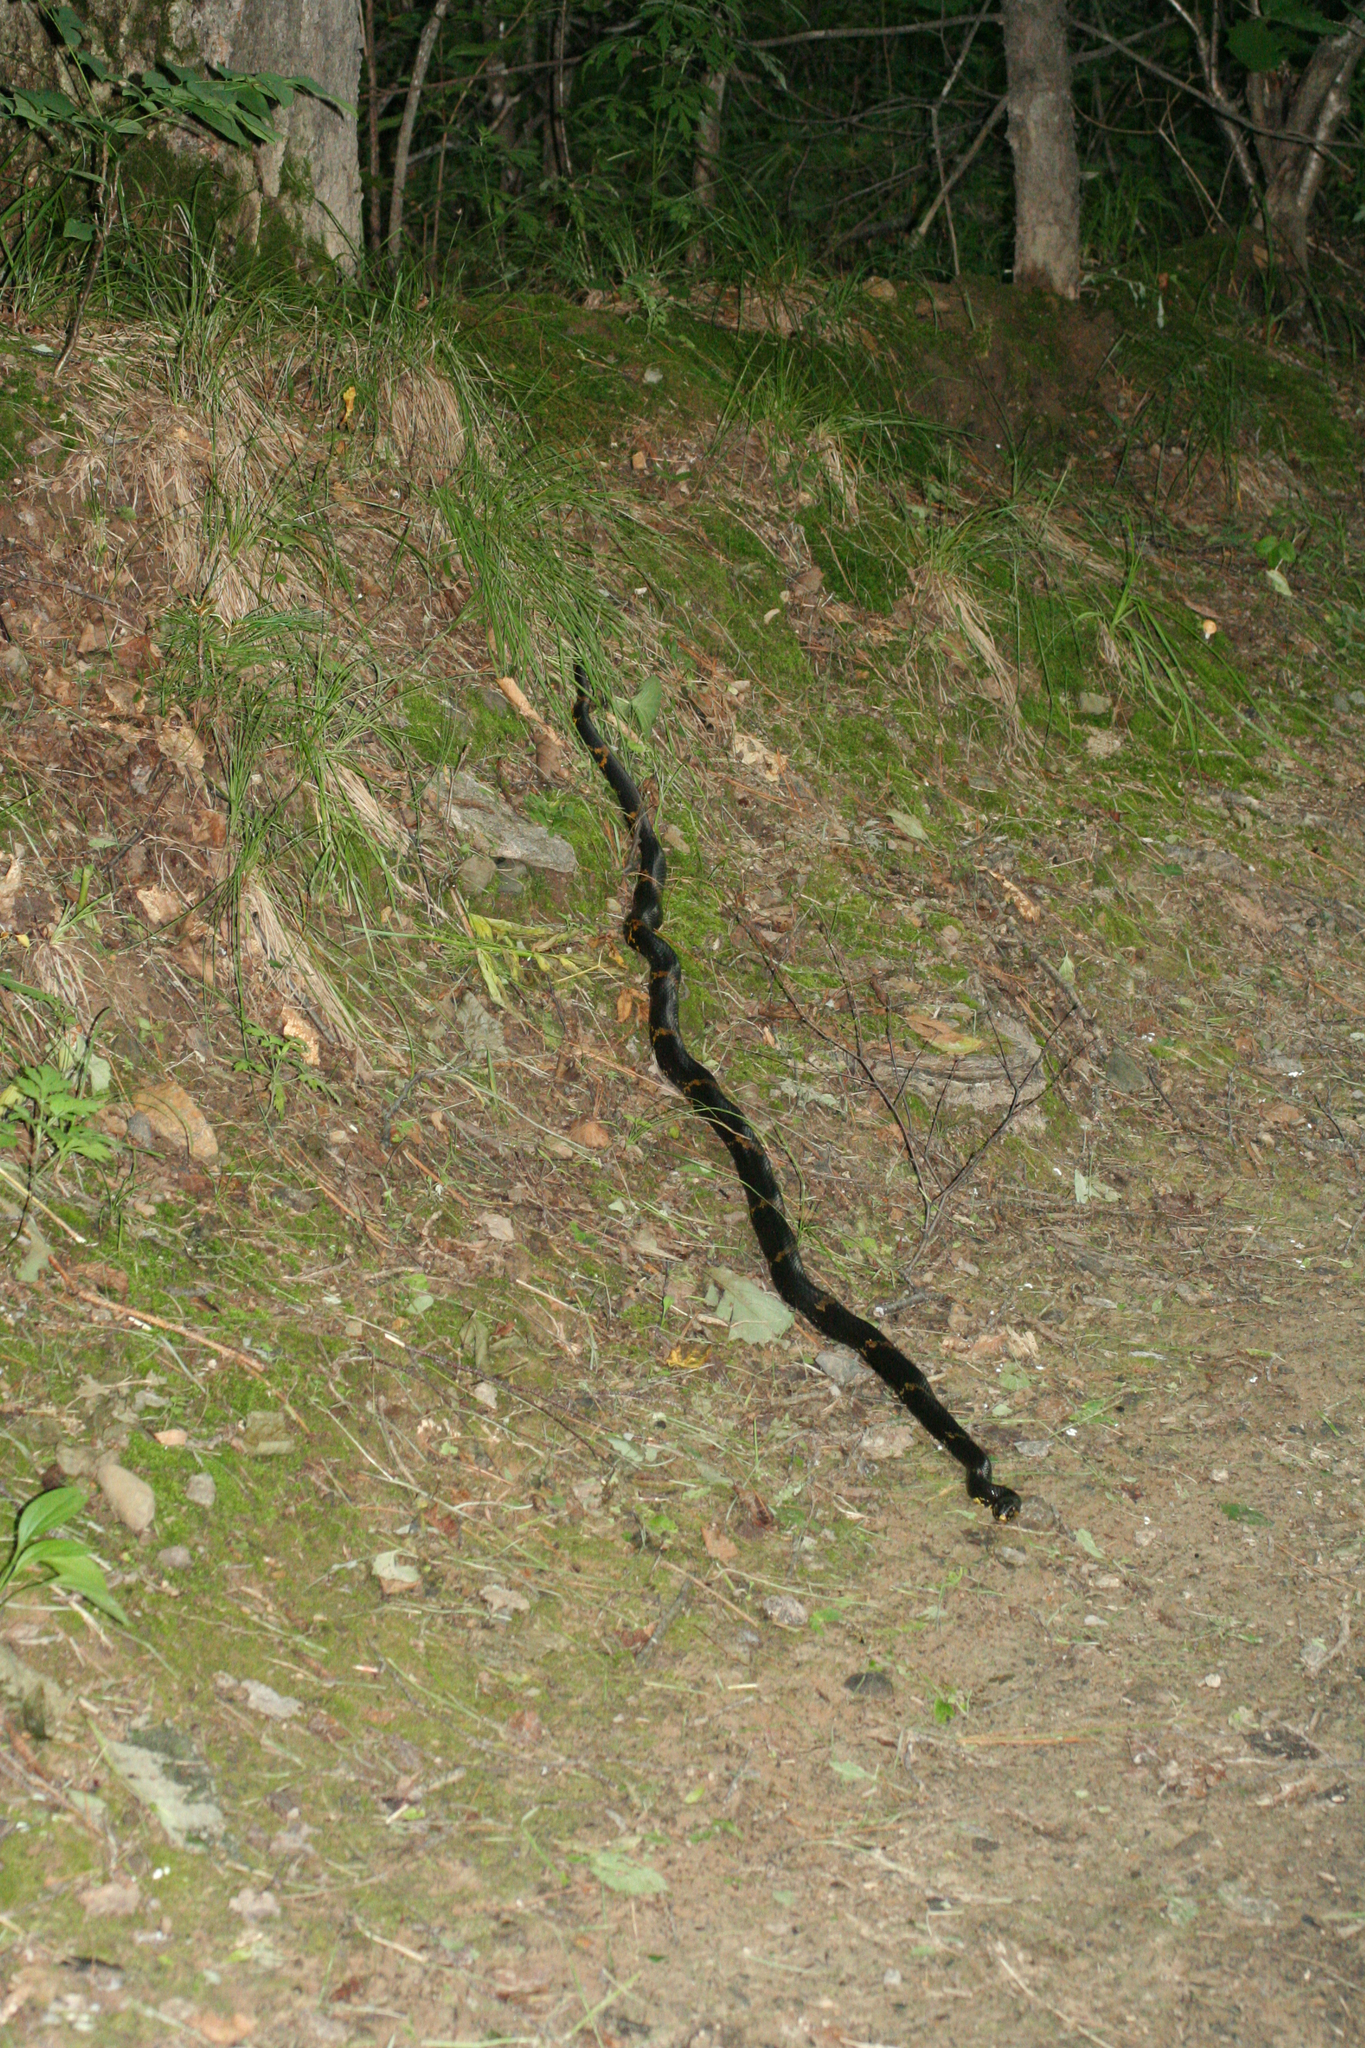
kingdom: Animalia
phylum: Chordata
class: Squamata
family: Colubridae
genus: Elaphe
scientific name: Elaphe schrenckii
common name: Amur rat snake
